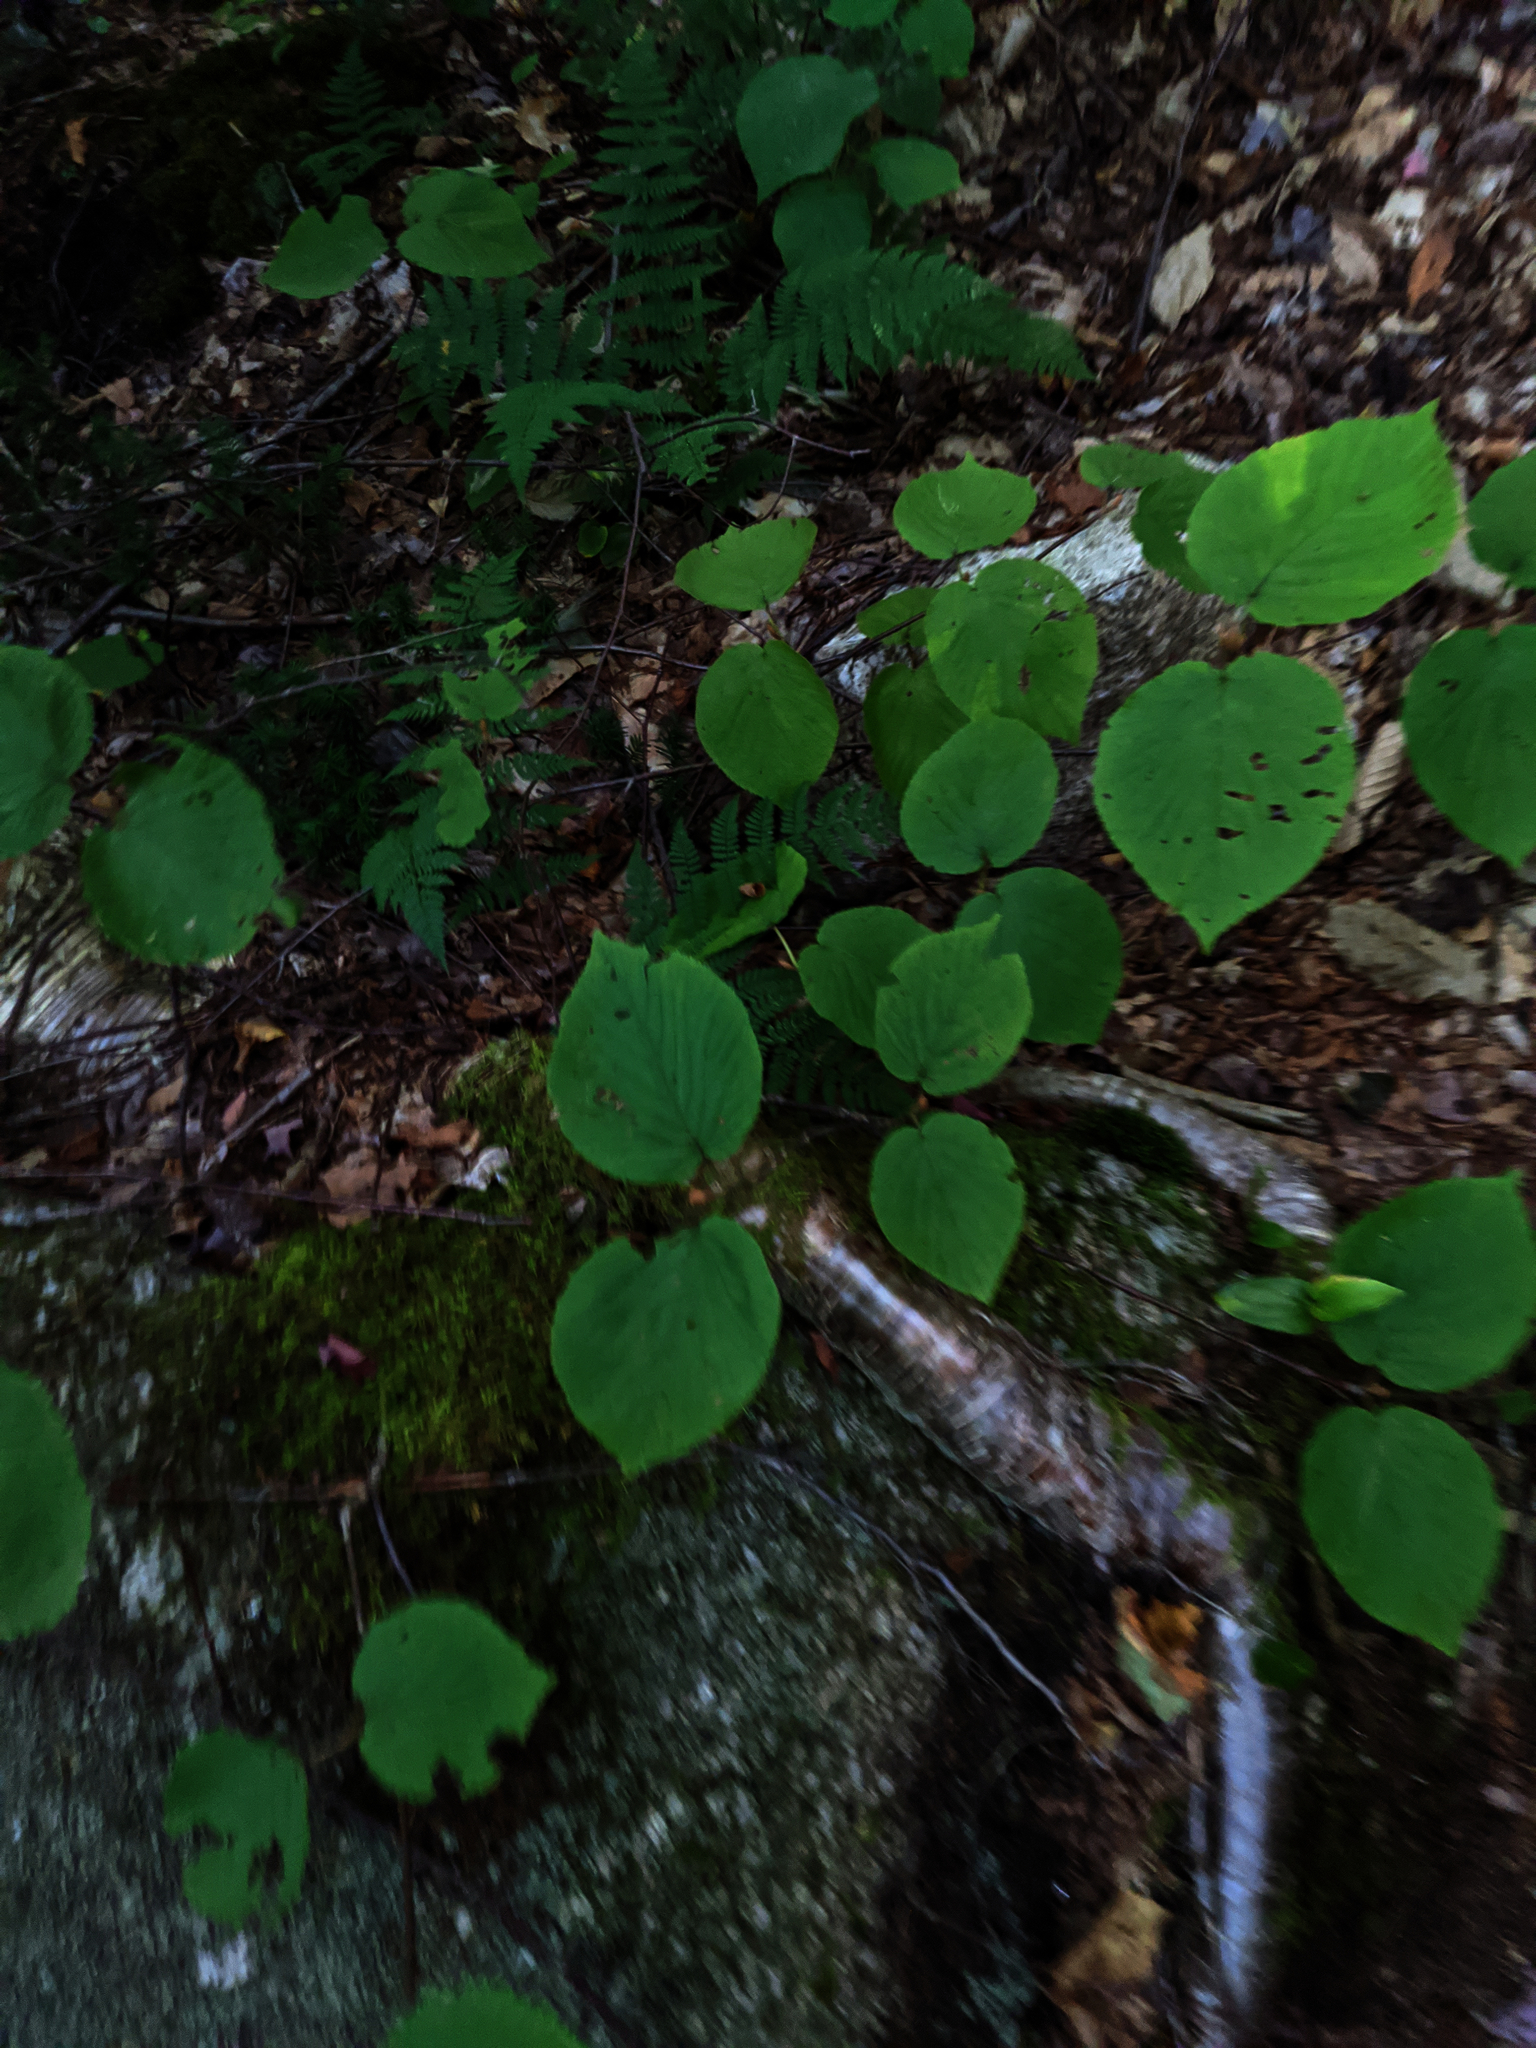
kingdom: Plantae
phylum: Tracheophyta
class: Magnoliopsida
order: Dipsacales
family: Viburnaceae
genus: Viburnum
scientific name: Viburnum lantanoides
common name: Hobblebush
